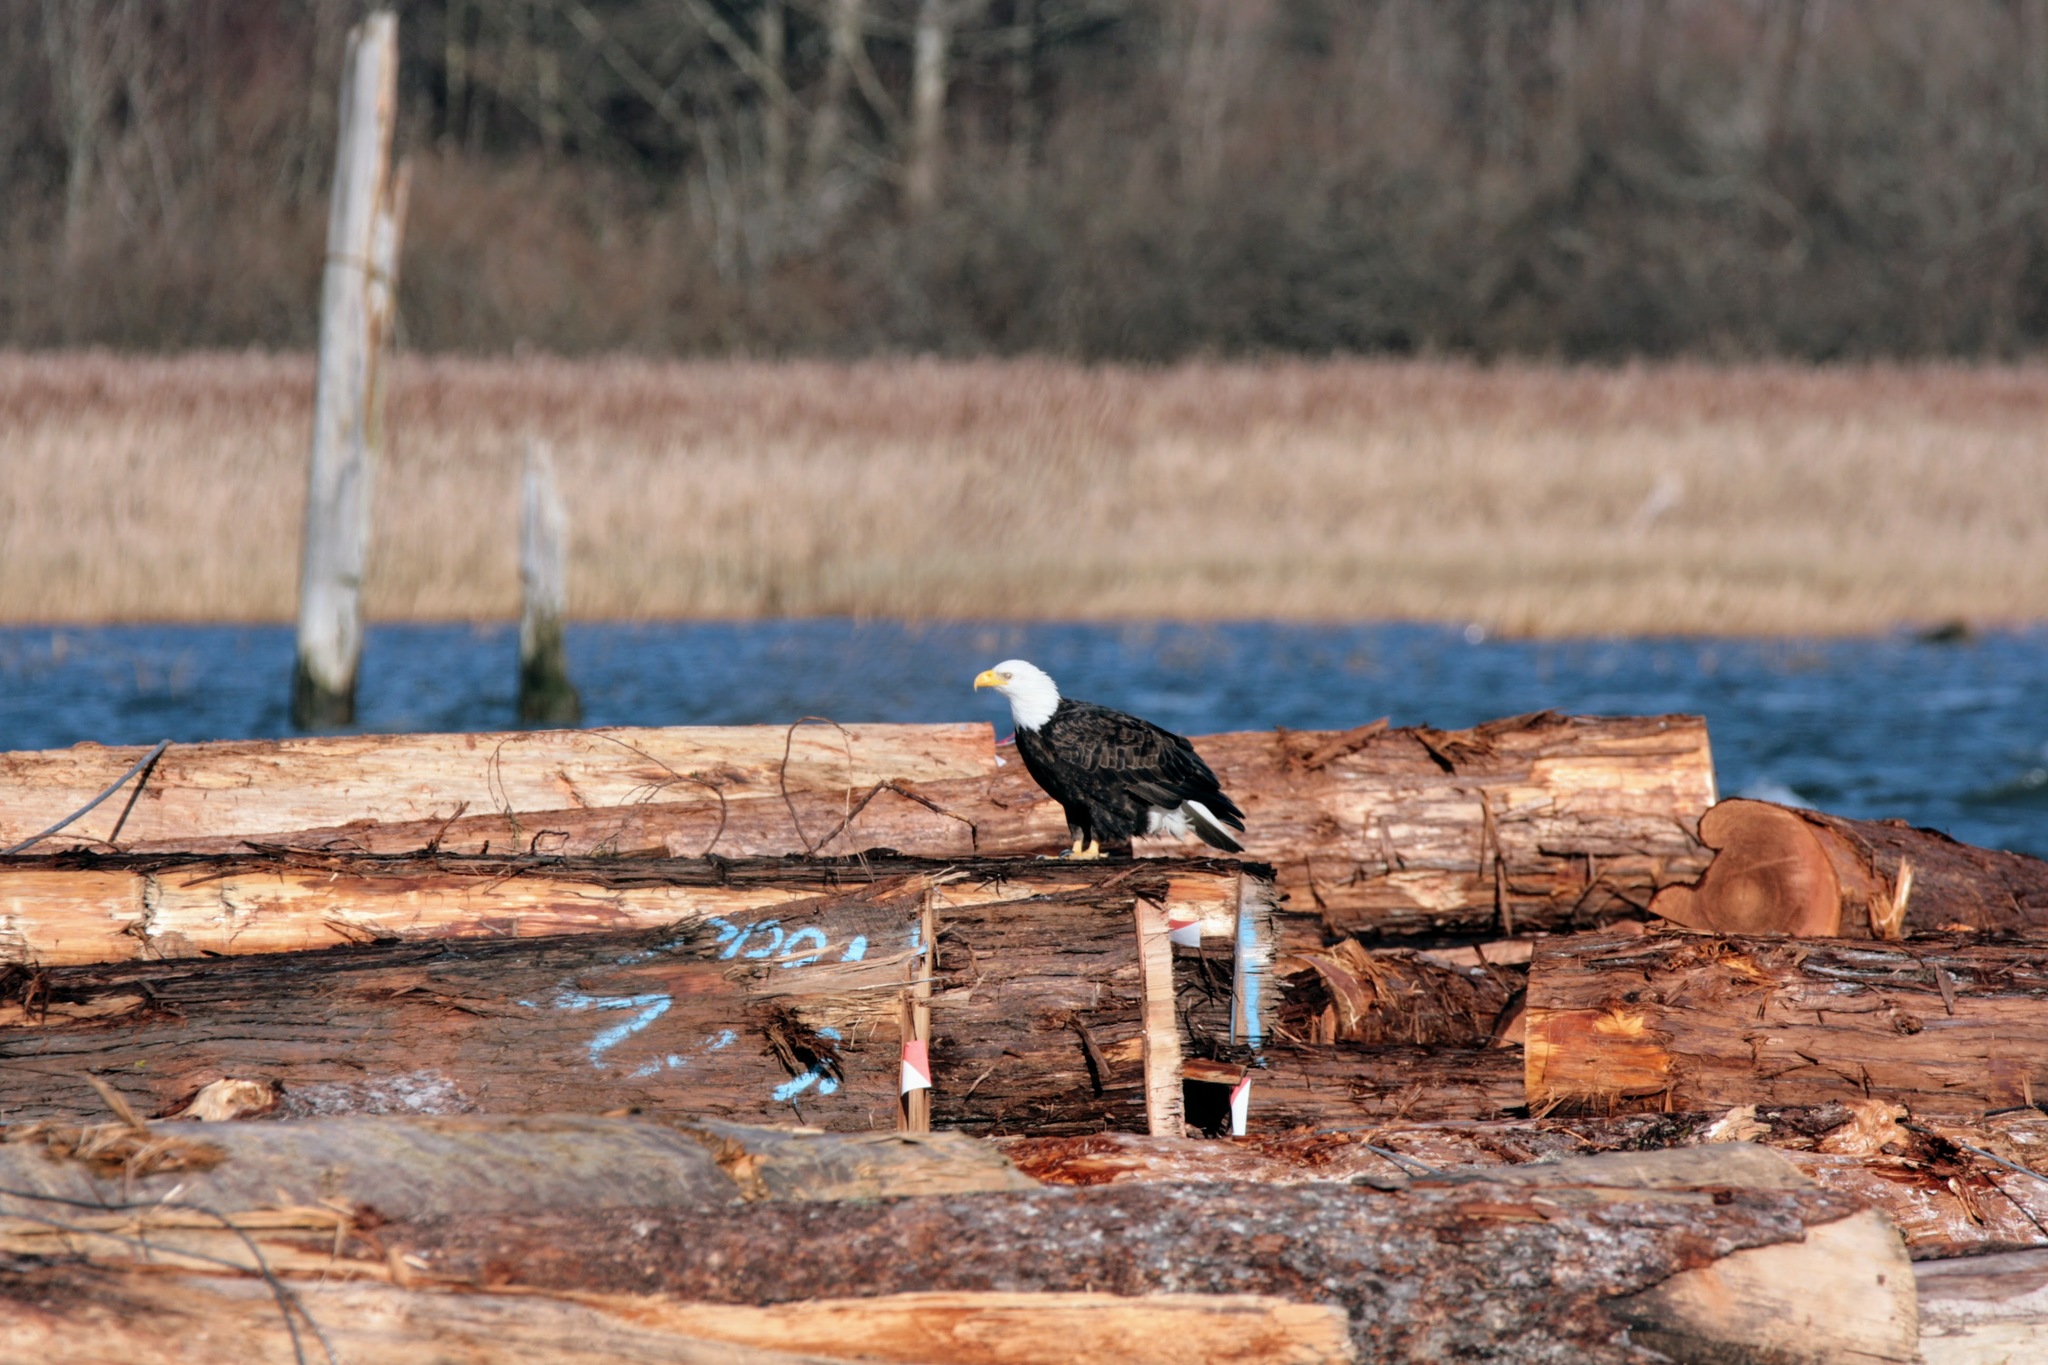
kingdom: Animalia
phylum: Chordata
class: Aves
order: Accipitriformes
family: Accipitridae
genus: Haliaeetus
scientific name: Haliaeetus leucocephalus
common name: Bald eagle
